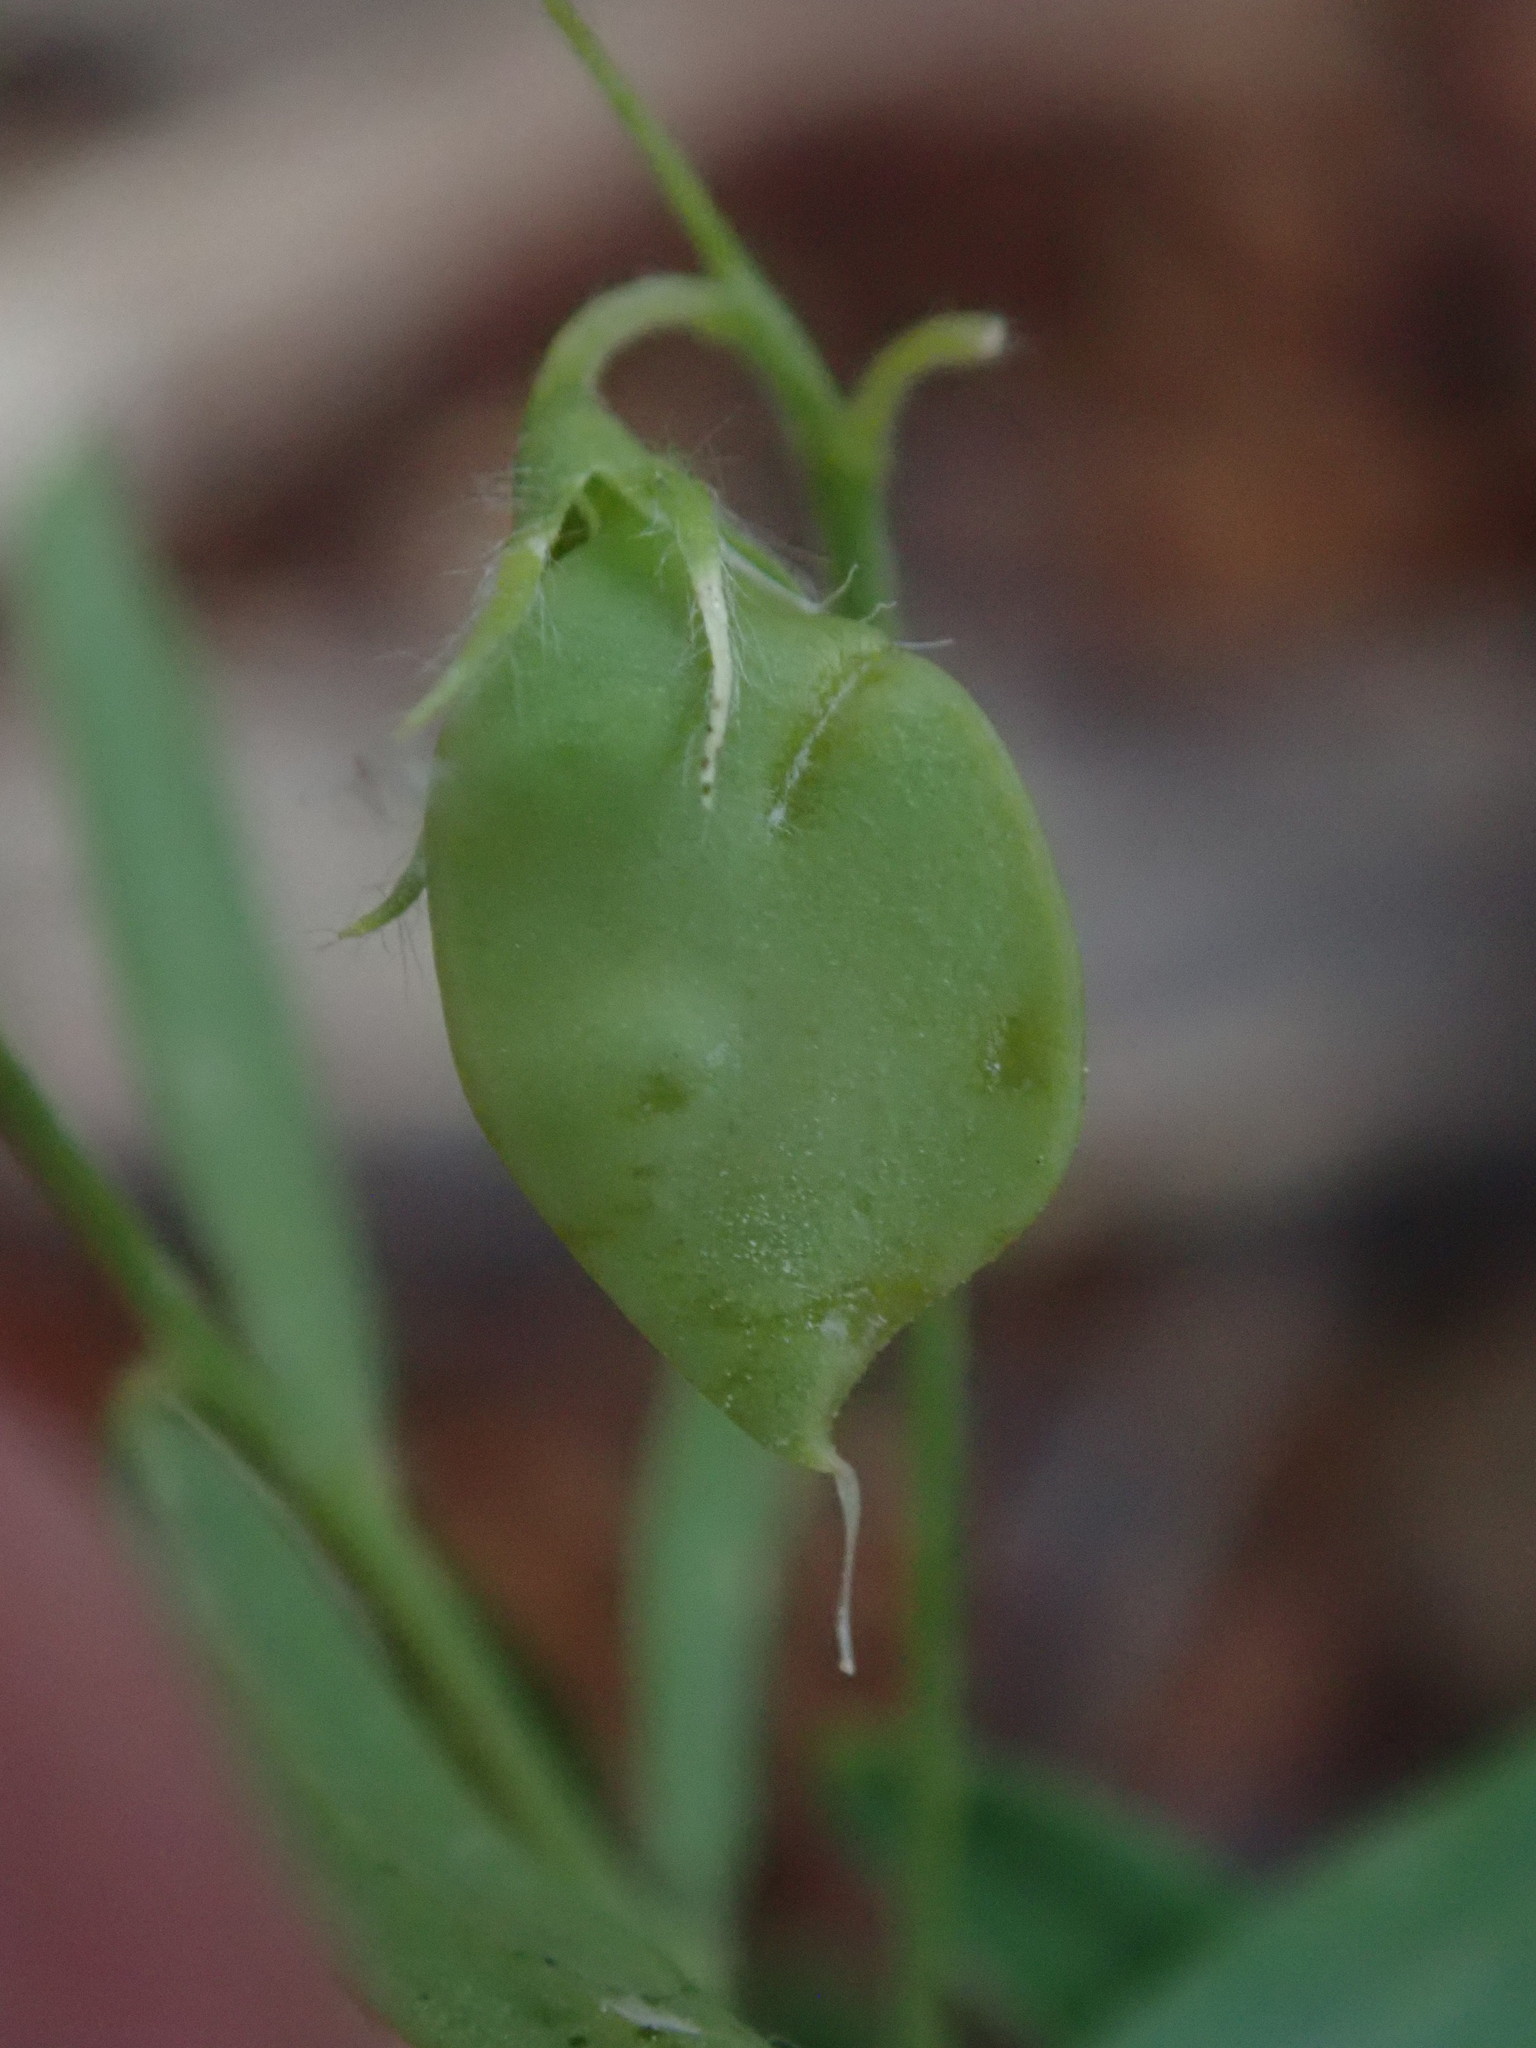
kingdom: Plantae
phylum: Tracheophyta
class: Magnoliopsida
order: Fabales
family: Fabaceae
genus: Vicia
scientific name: Vicia hirsuta
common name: Tiny vetch
